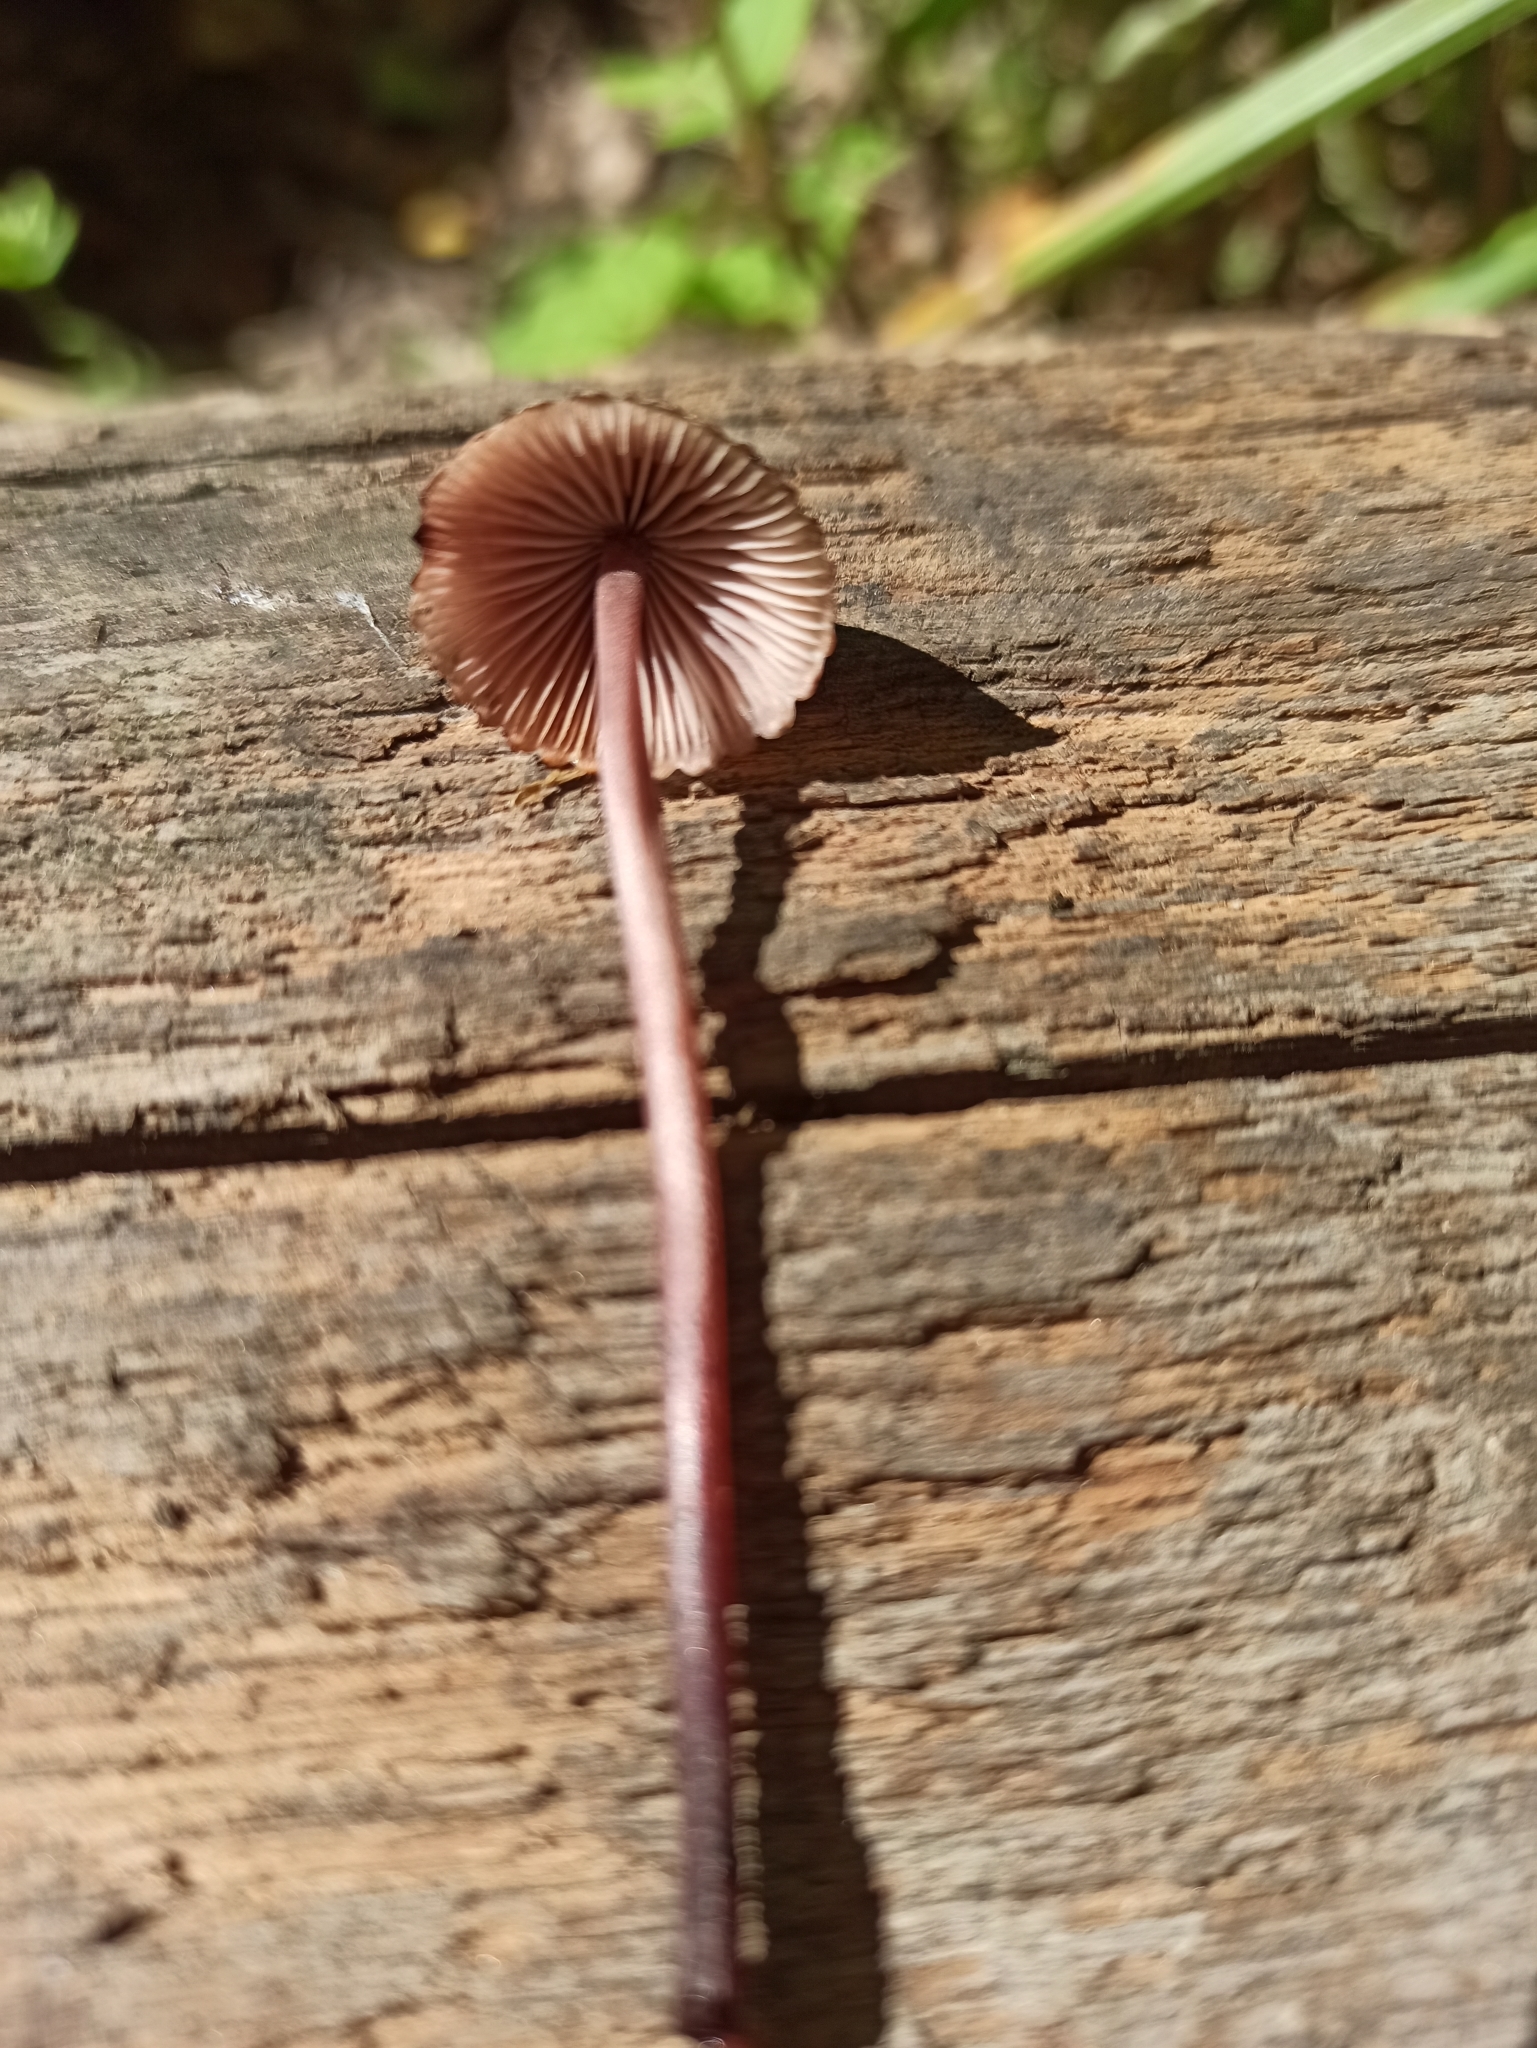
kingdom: Fungi
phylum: Basidiomycota
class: Agaricomycetes
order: Agaricales
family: Mycenaceae
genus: Mycena
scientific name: Mycena haematopus
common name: Burgundydrop bonnet
